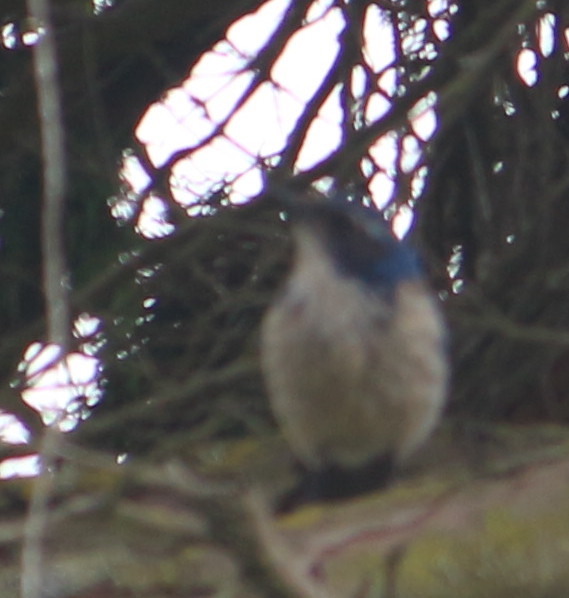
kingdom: Animalia
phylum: Chordata
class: Aves
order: Passeriformes
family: Corvidae
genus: Aphelocoma
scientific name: Aphelocoma californica
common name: California scrub-jay
